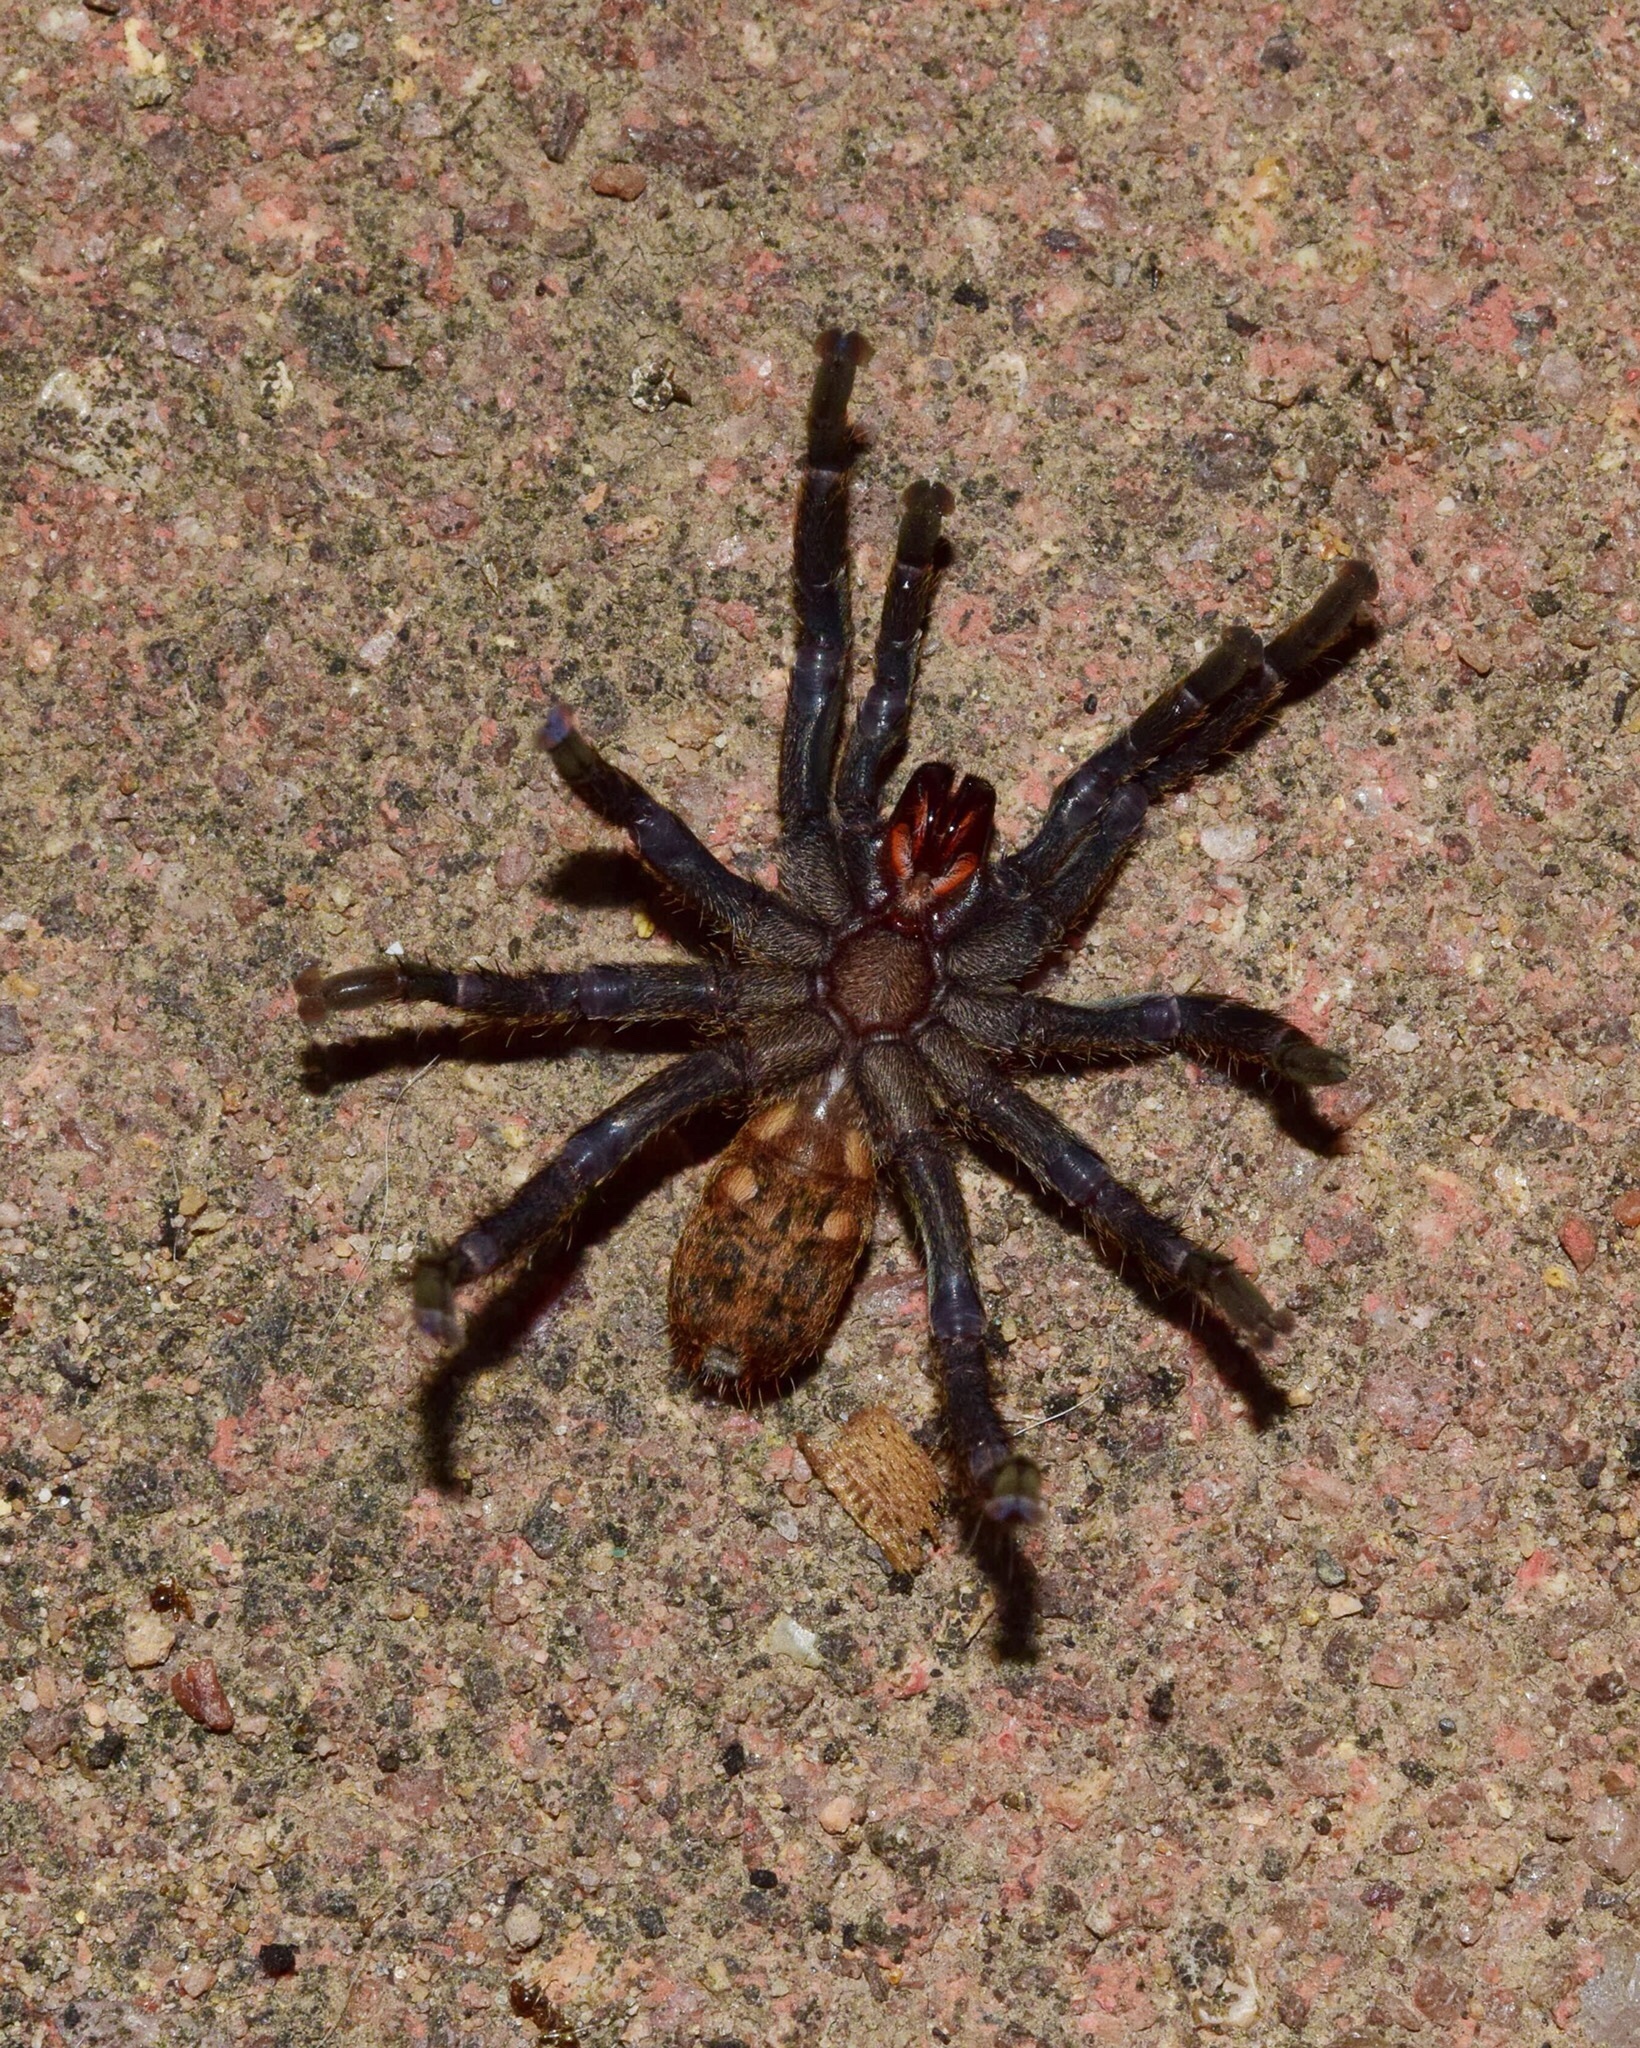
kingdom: Animalia
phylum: Arthropoda
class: Arachnida
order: Araneae
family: Theraphosidae
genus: Brachionopus
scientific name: Brachionopus robustus
